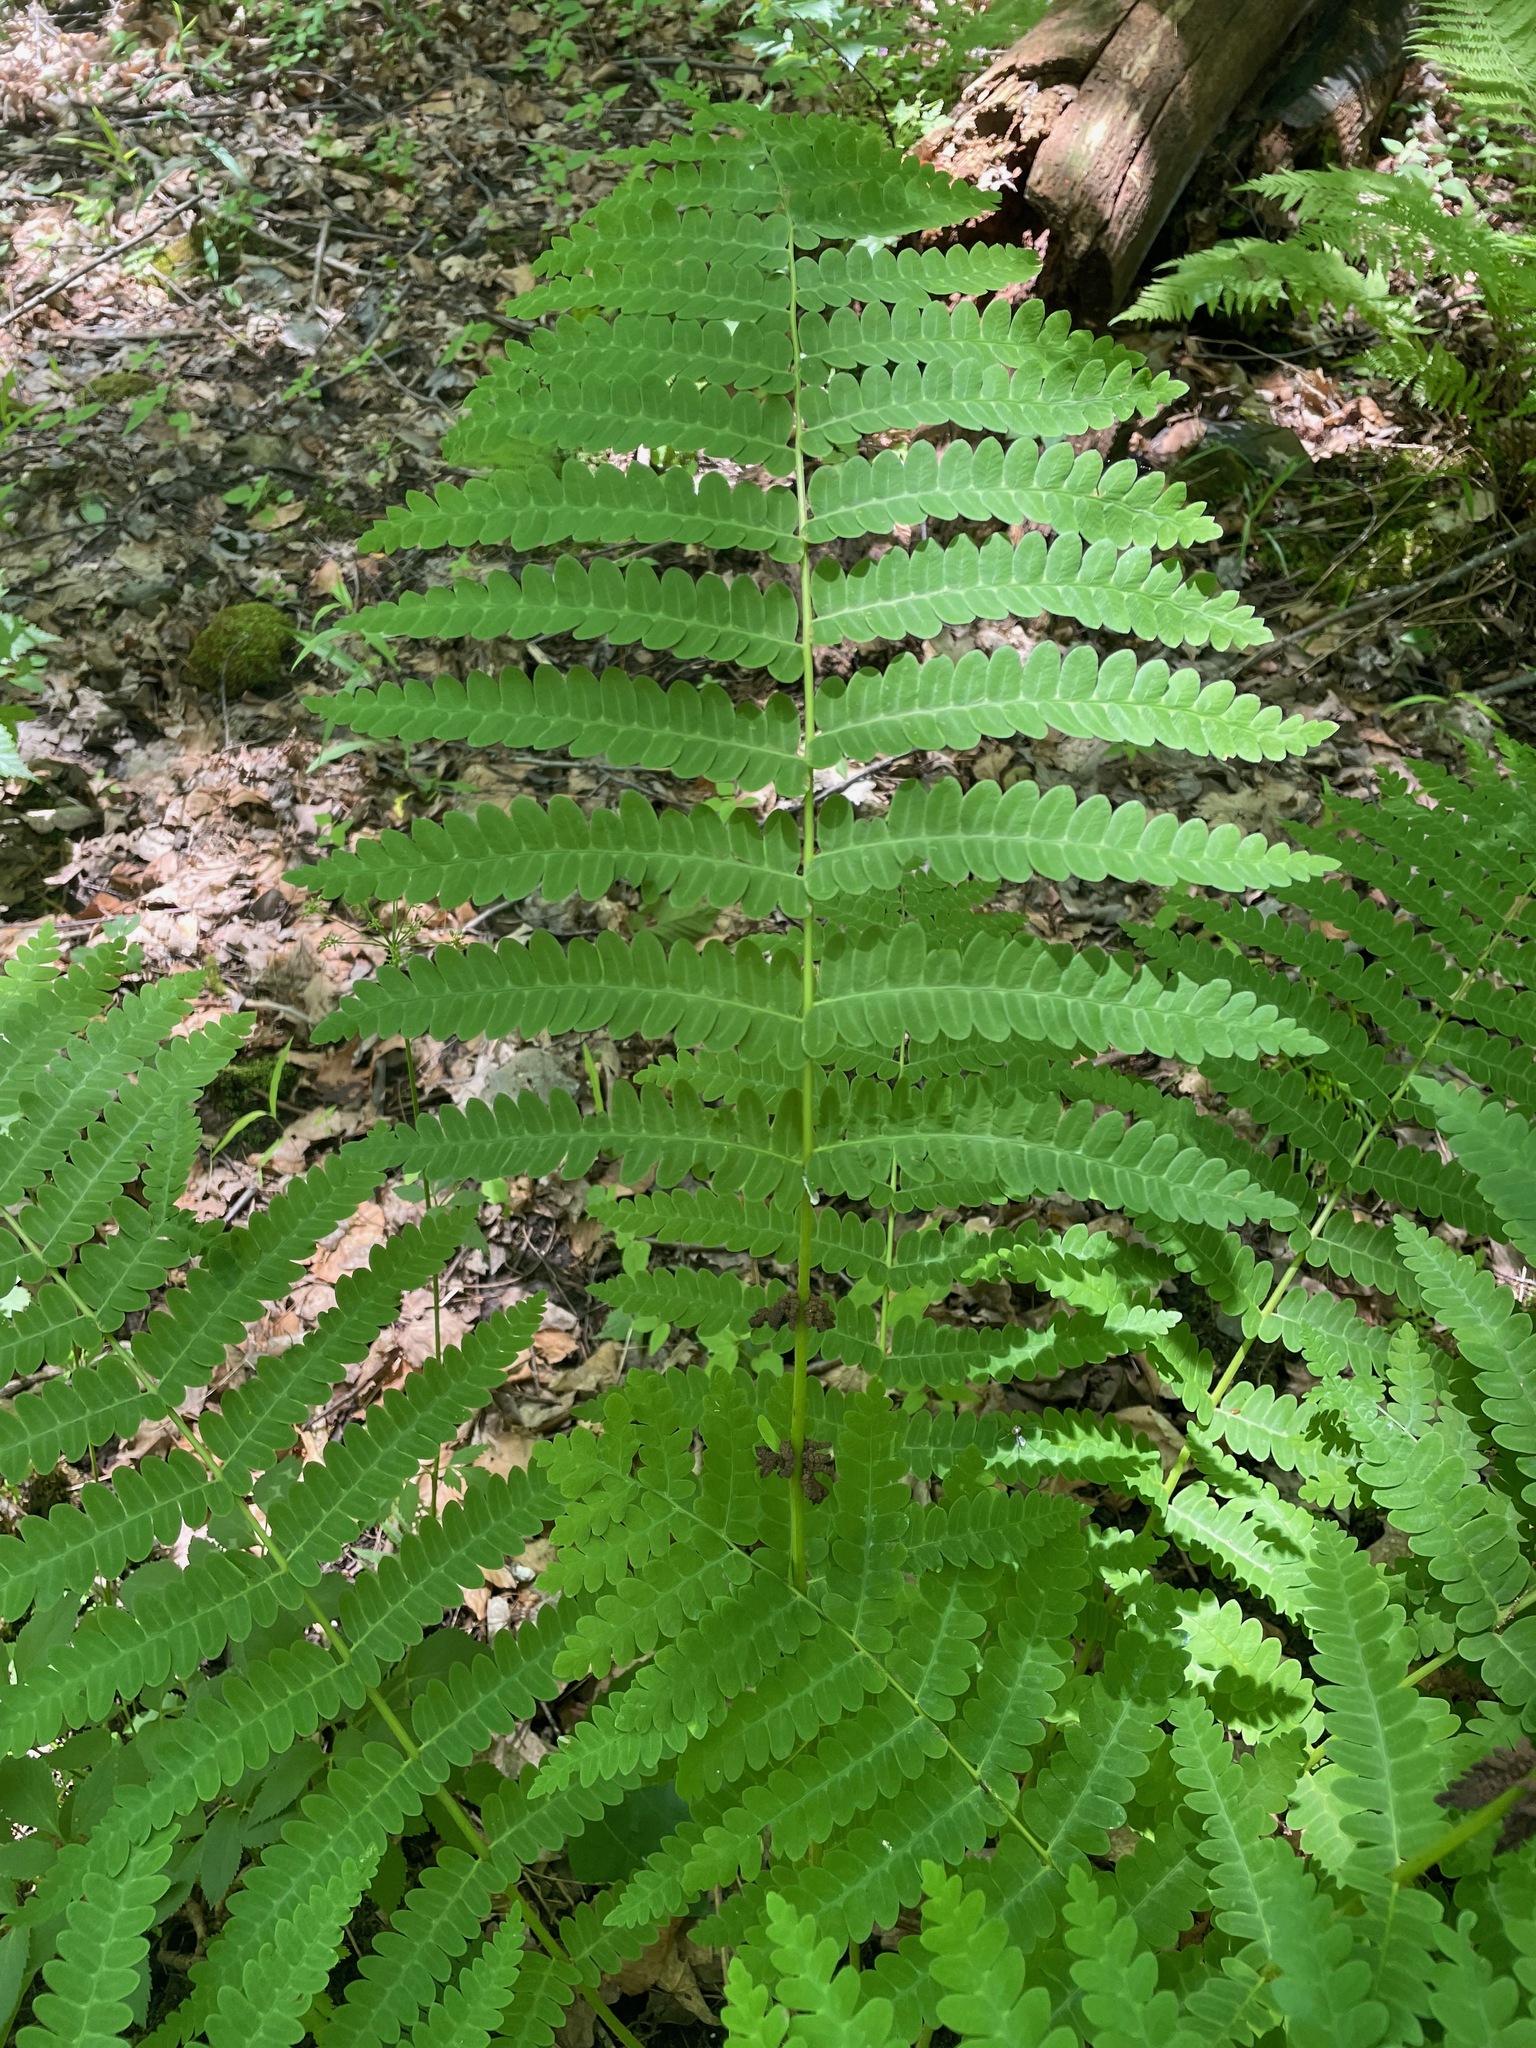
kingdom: Plantae
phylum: Tracheophyta
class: Polypodiopsida
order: Osmundales
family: Osmundaceae
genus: Claytosmunda
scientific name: Claytosmunda claytoniana
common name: Clayton's fern
